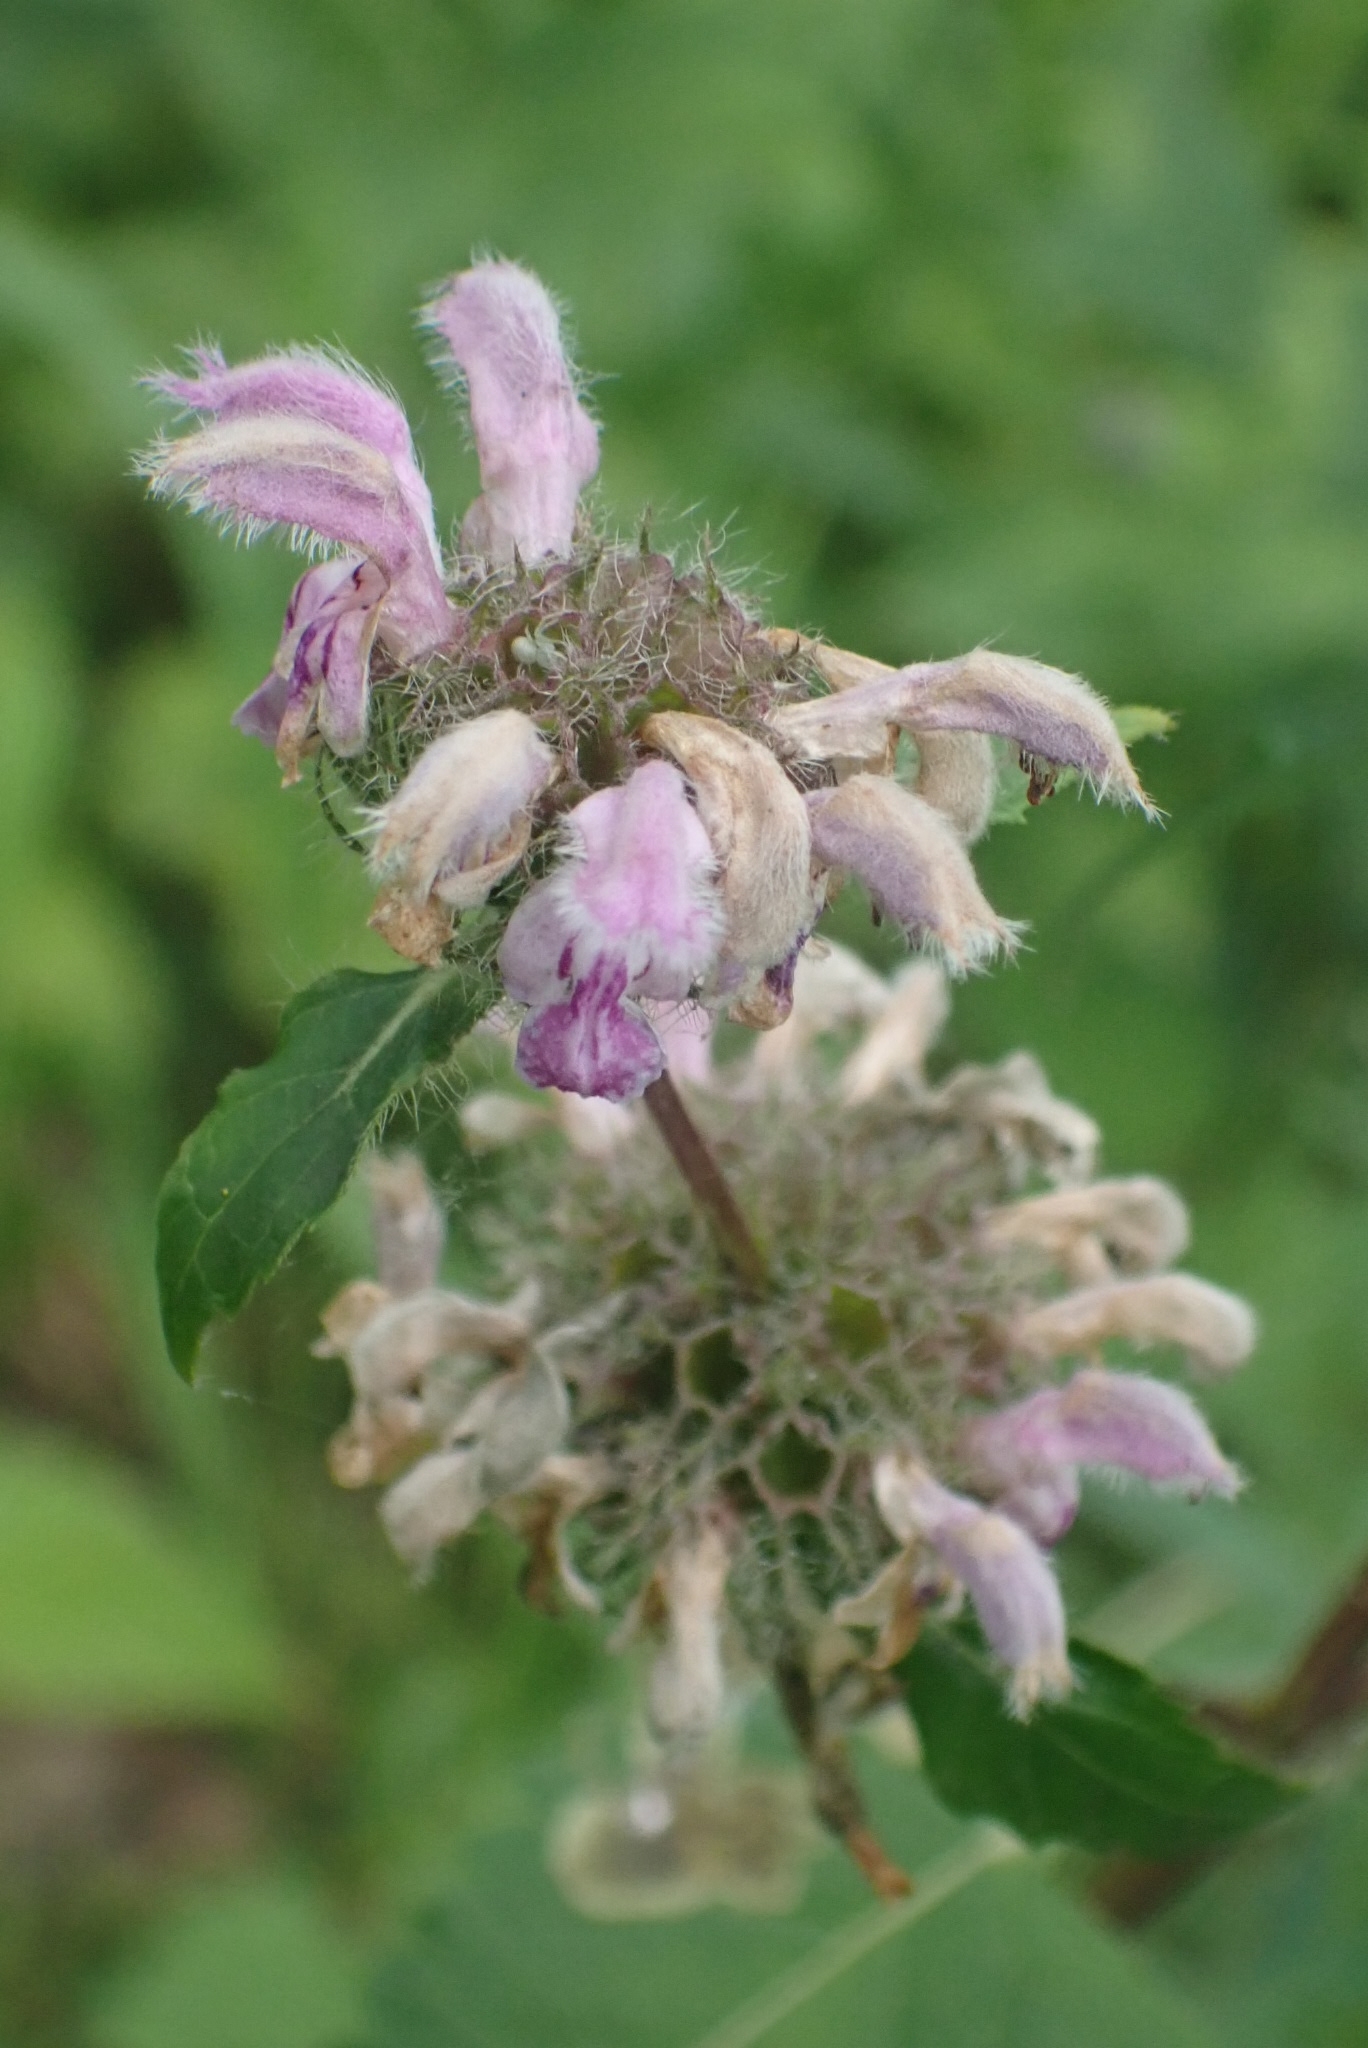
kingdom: Plantae
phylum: Tracheophyta
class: Magnoliopsida
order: Lamiales
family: Lamiaceae
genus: Phlomoides
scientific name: Phlomoides tuberosa
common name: Tuberous jerusalem sage
